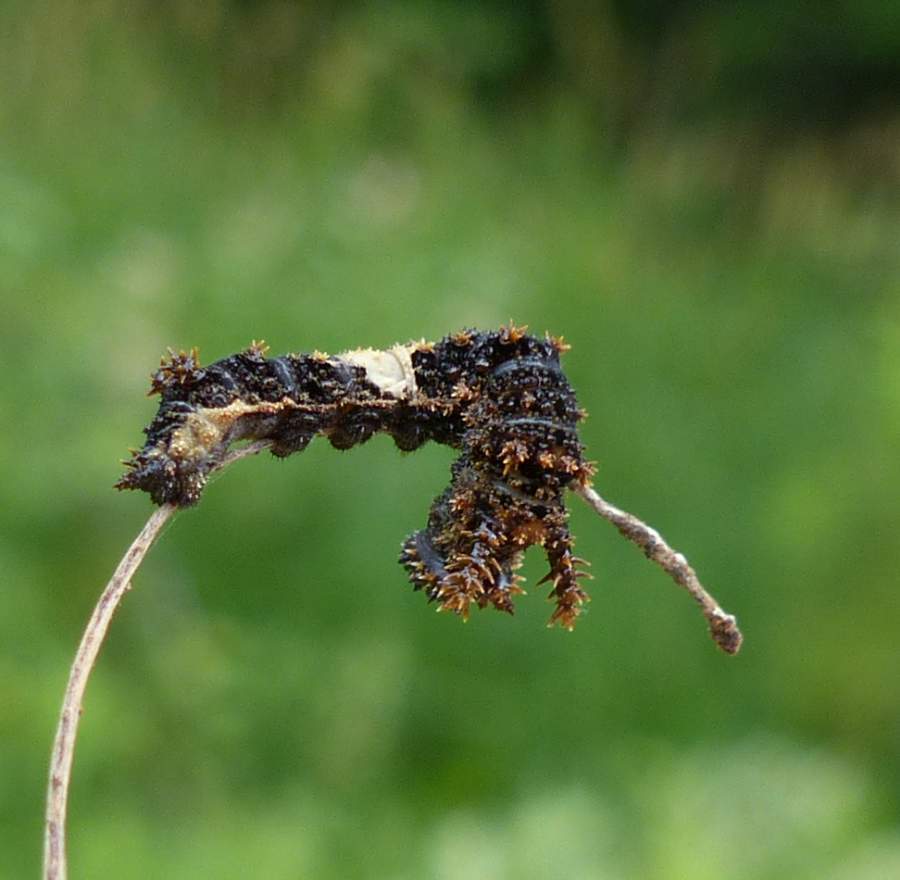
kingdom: Animalia
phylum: Arthropoda
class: Insecta
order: Lepidoptera
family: Nymphalidae
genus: Limenitis
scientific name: Limenitis
